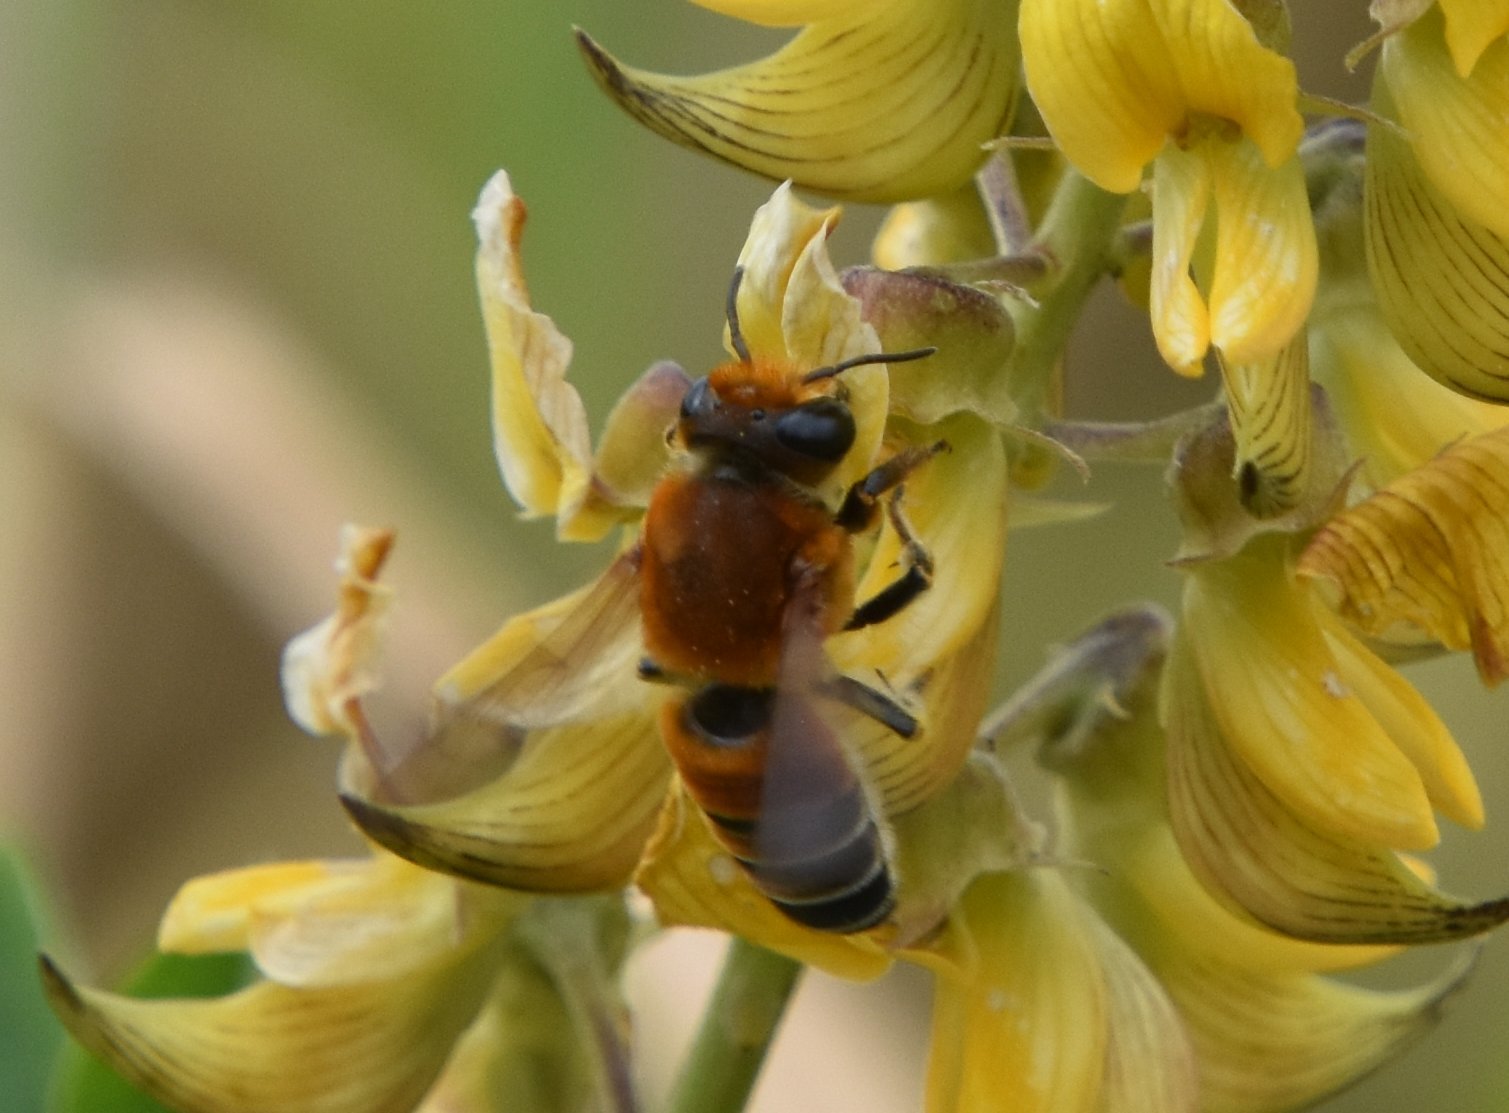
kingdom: Animalia
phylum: Arthropoda
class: Insecta
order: Hymenoptera
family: Megachilidae
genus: Megachile
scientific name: Megachile lanata
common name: Wooly wall bee
